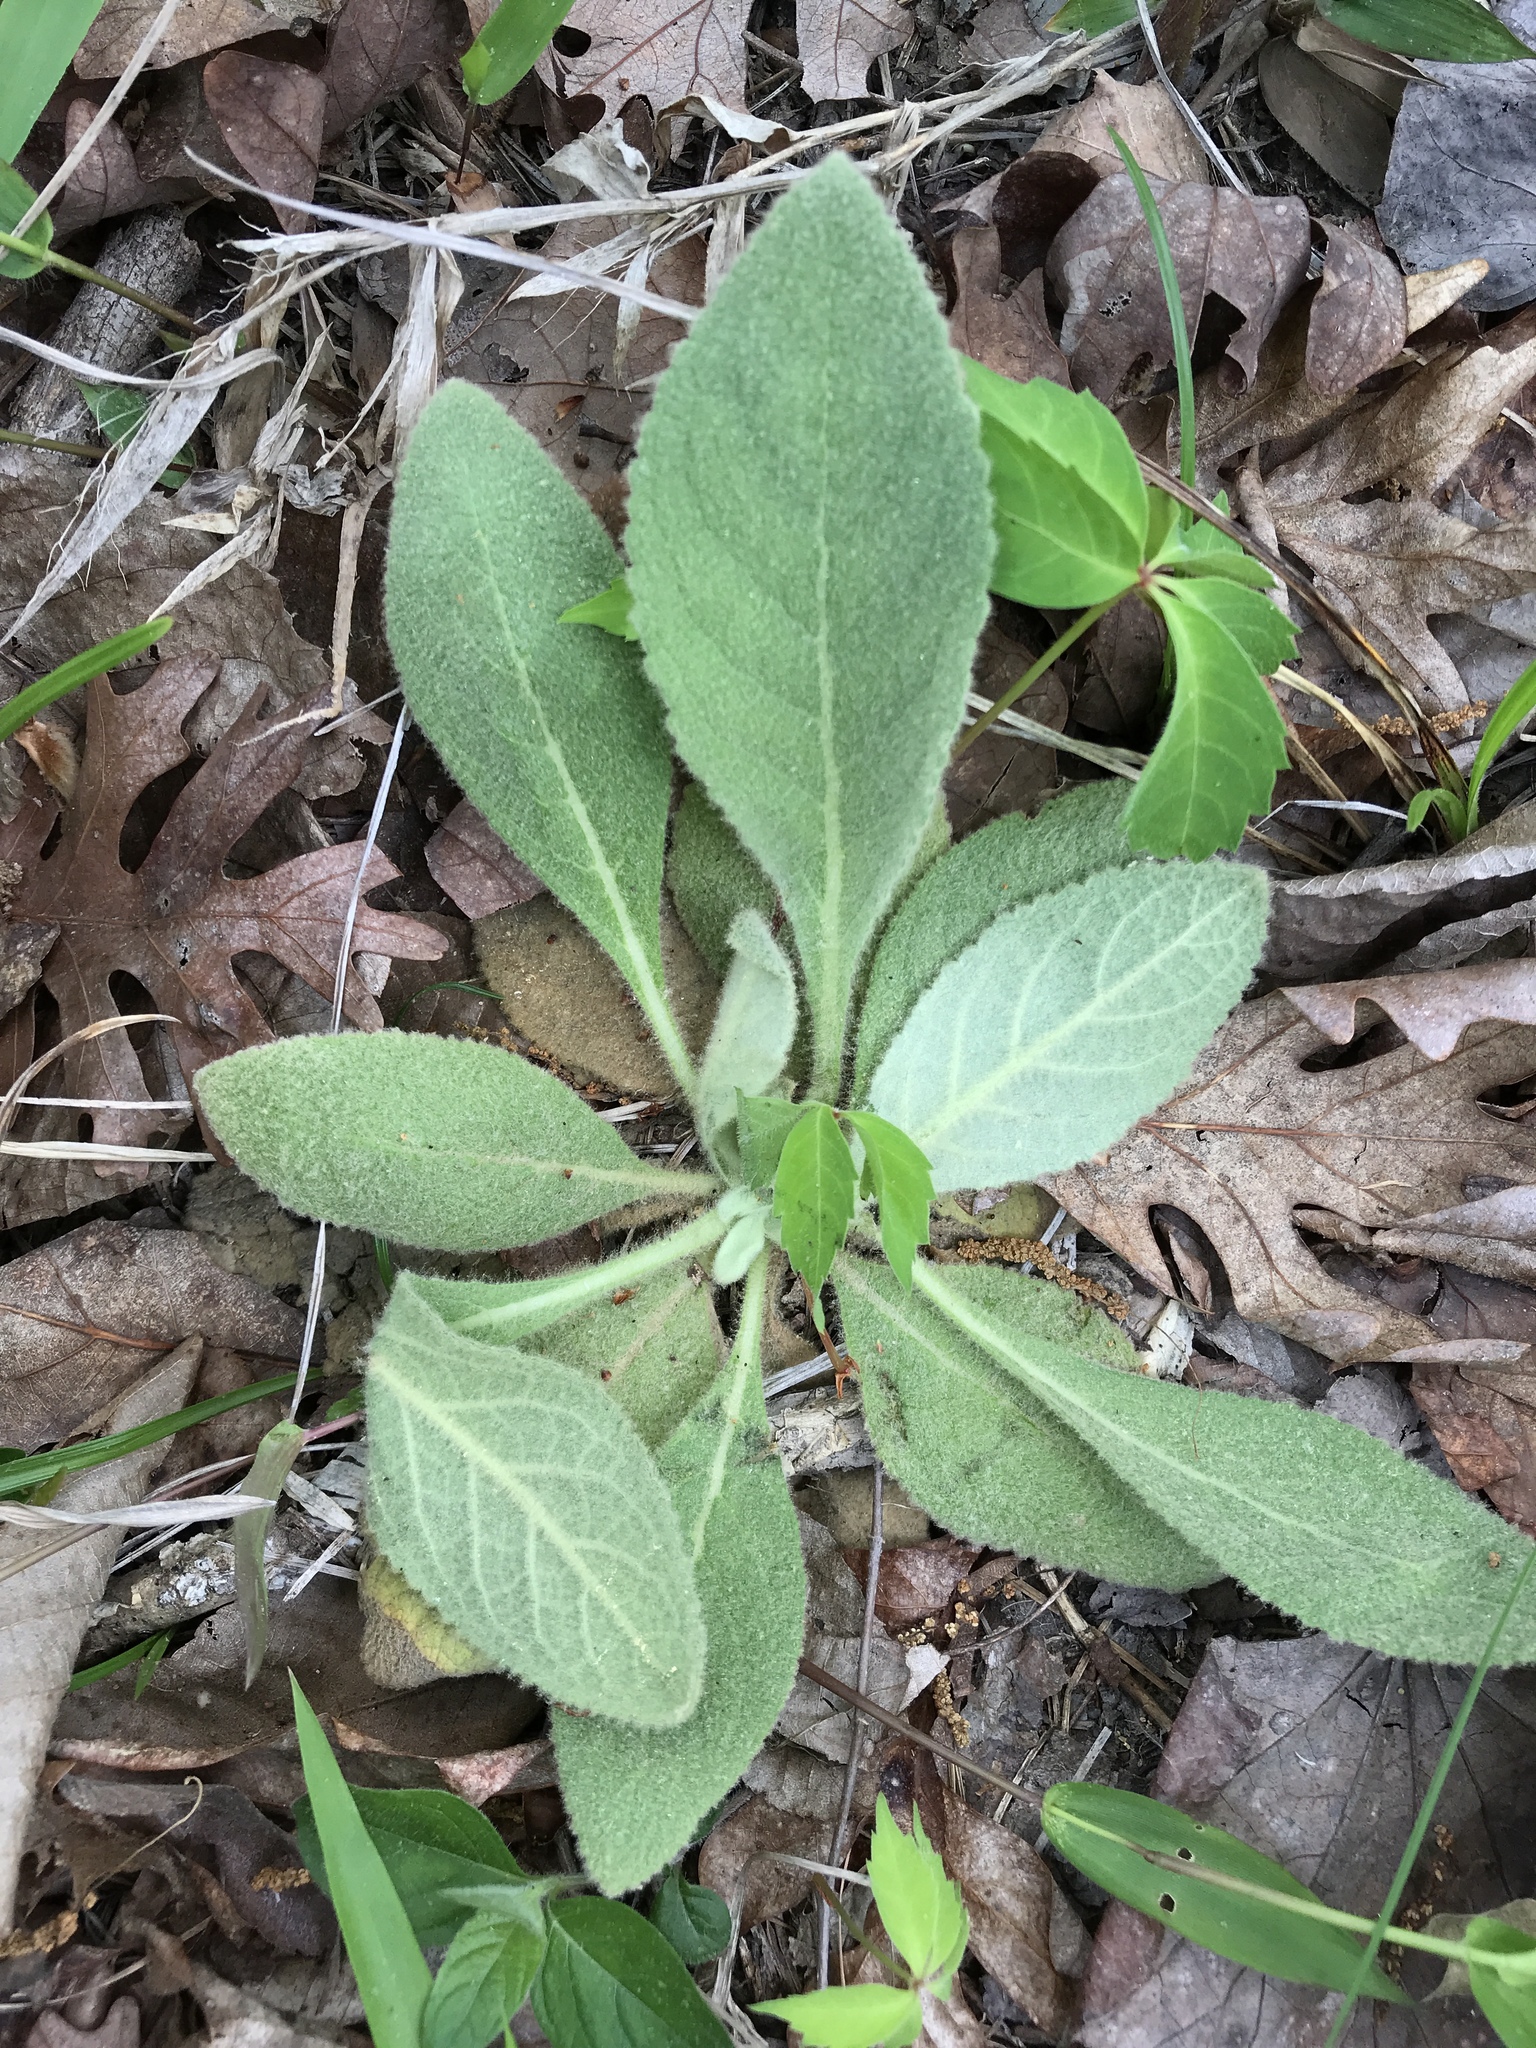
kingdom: Plantae
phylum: Tracheophyta
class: Magnoliopsida
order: Lamiales
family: Scrophulariaceae
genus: Verbascum
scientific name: Verbascum thapsus
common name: Common mullein
